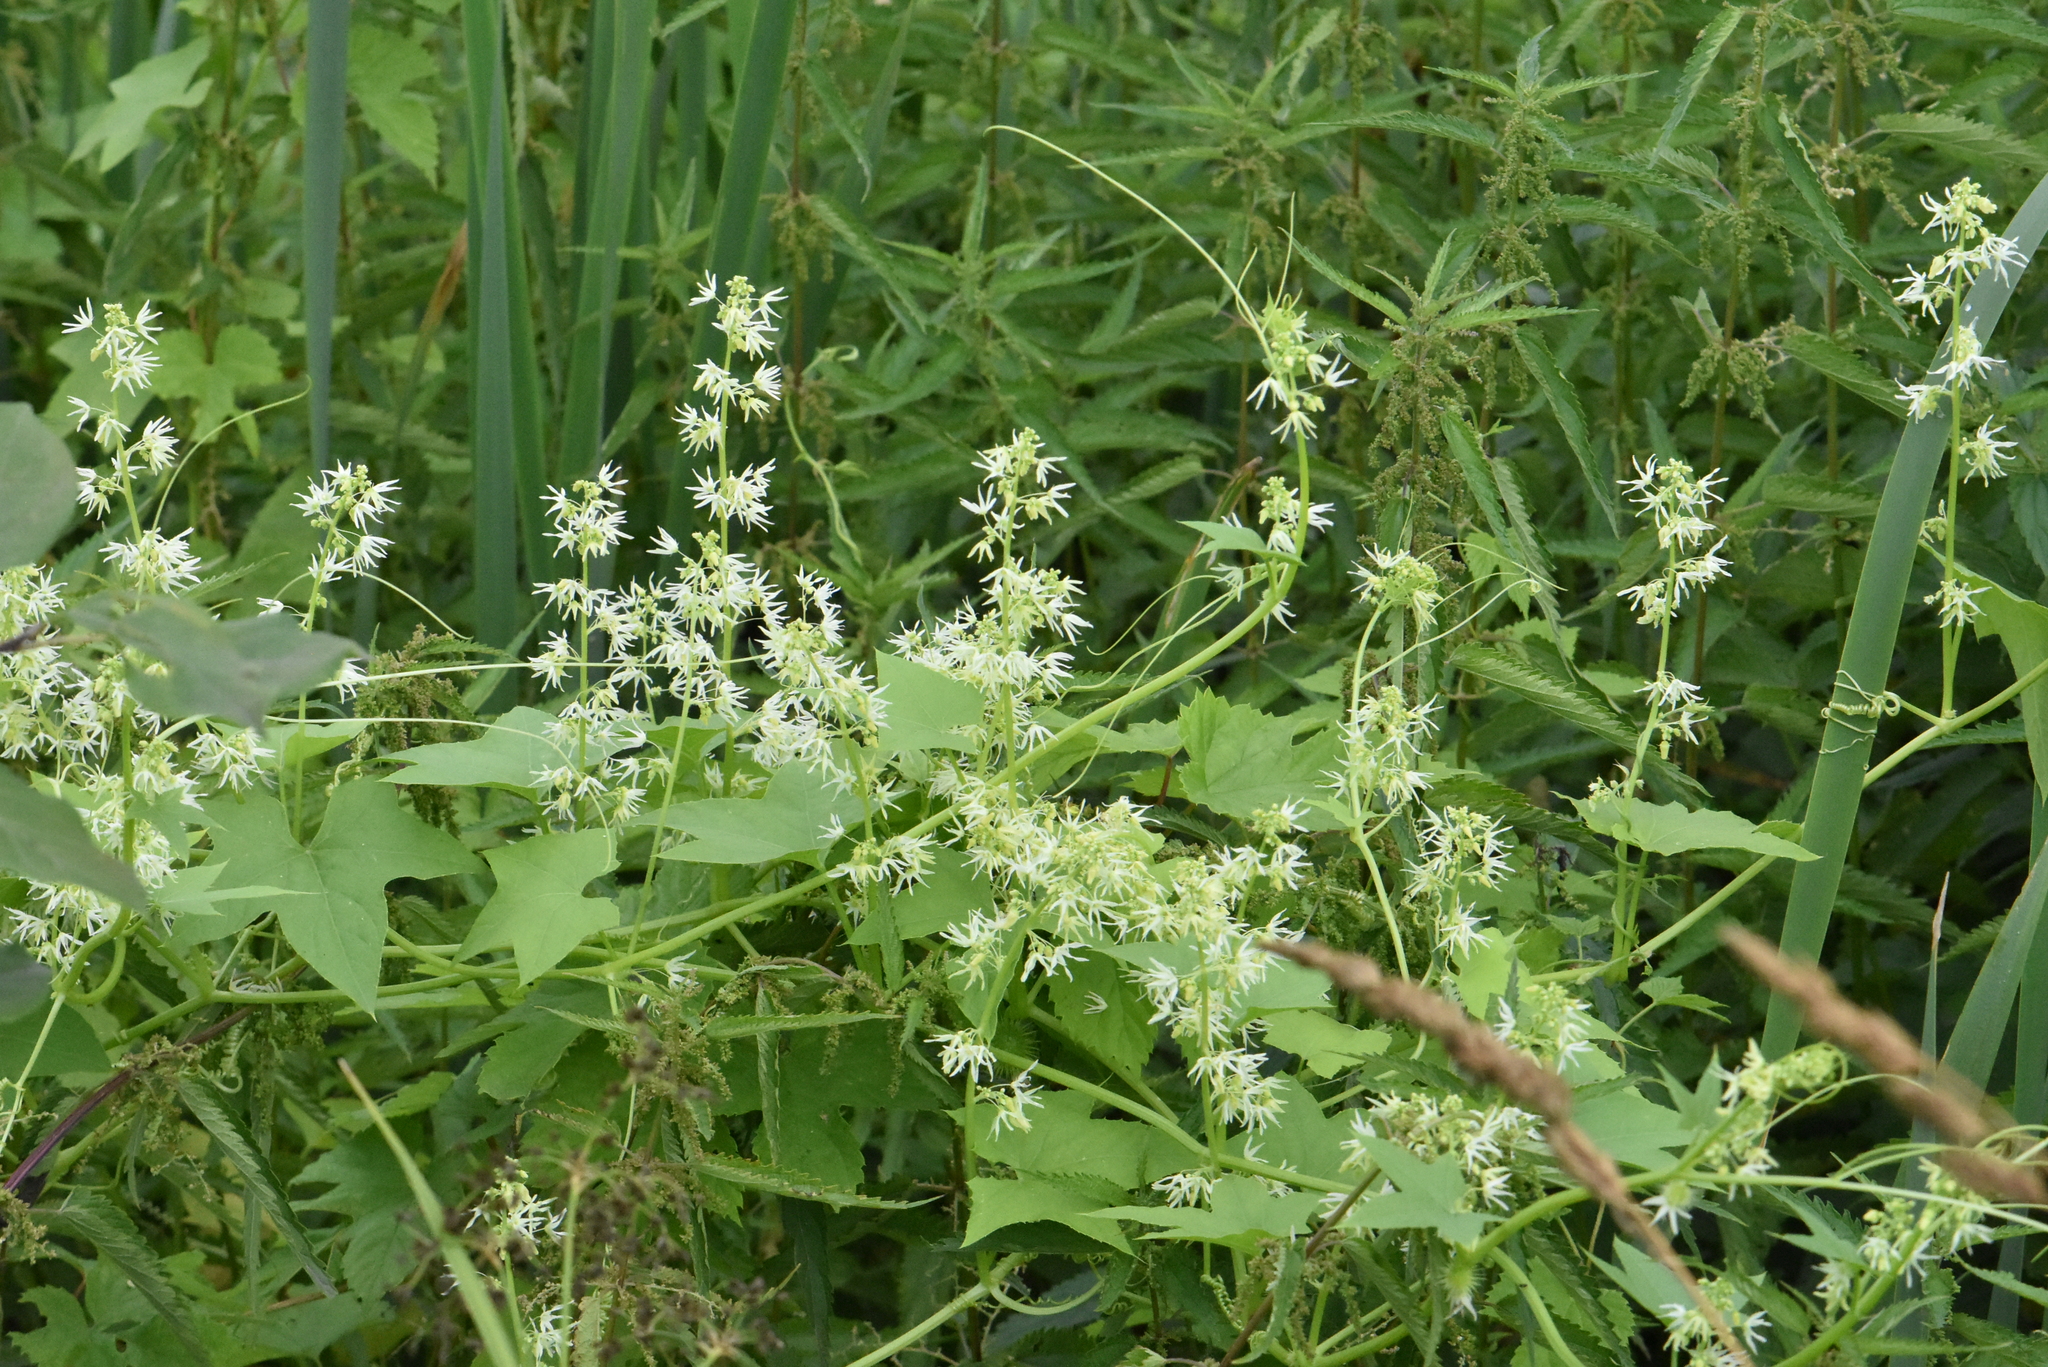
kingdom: Plantae
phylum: Tracheophyta
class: Magnoliopsida
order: Cucurbitales
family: Cucurbitaceae
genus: Echinocystis
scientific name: Echinocystis lobata
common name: Wild cucumber
